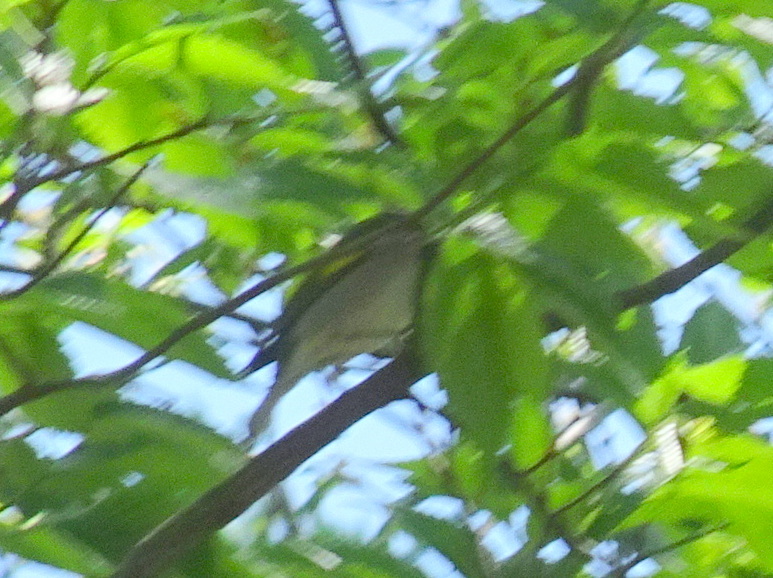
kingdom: Animalia
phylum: Chordata
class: Aves
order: Passeriformes
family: Parulidae
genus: Vermivora
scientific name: Vermivora chrysoptera
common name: Golden-winged warbler
